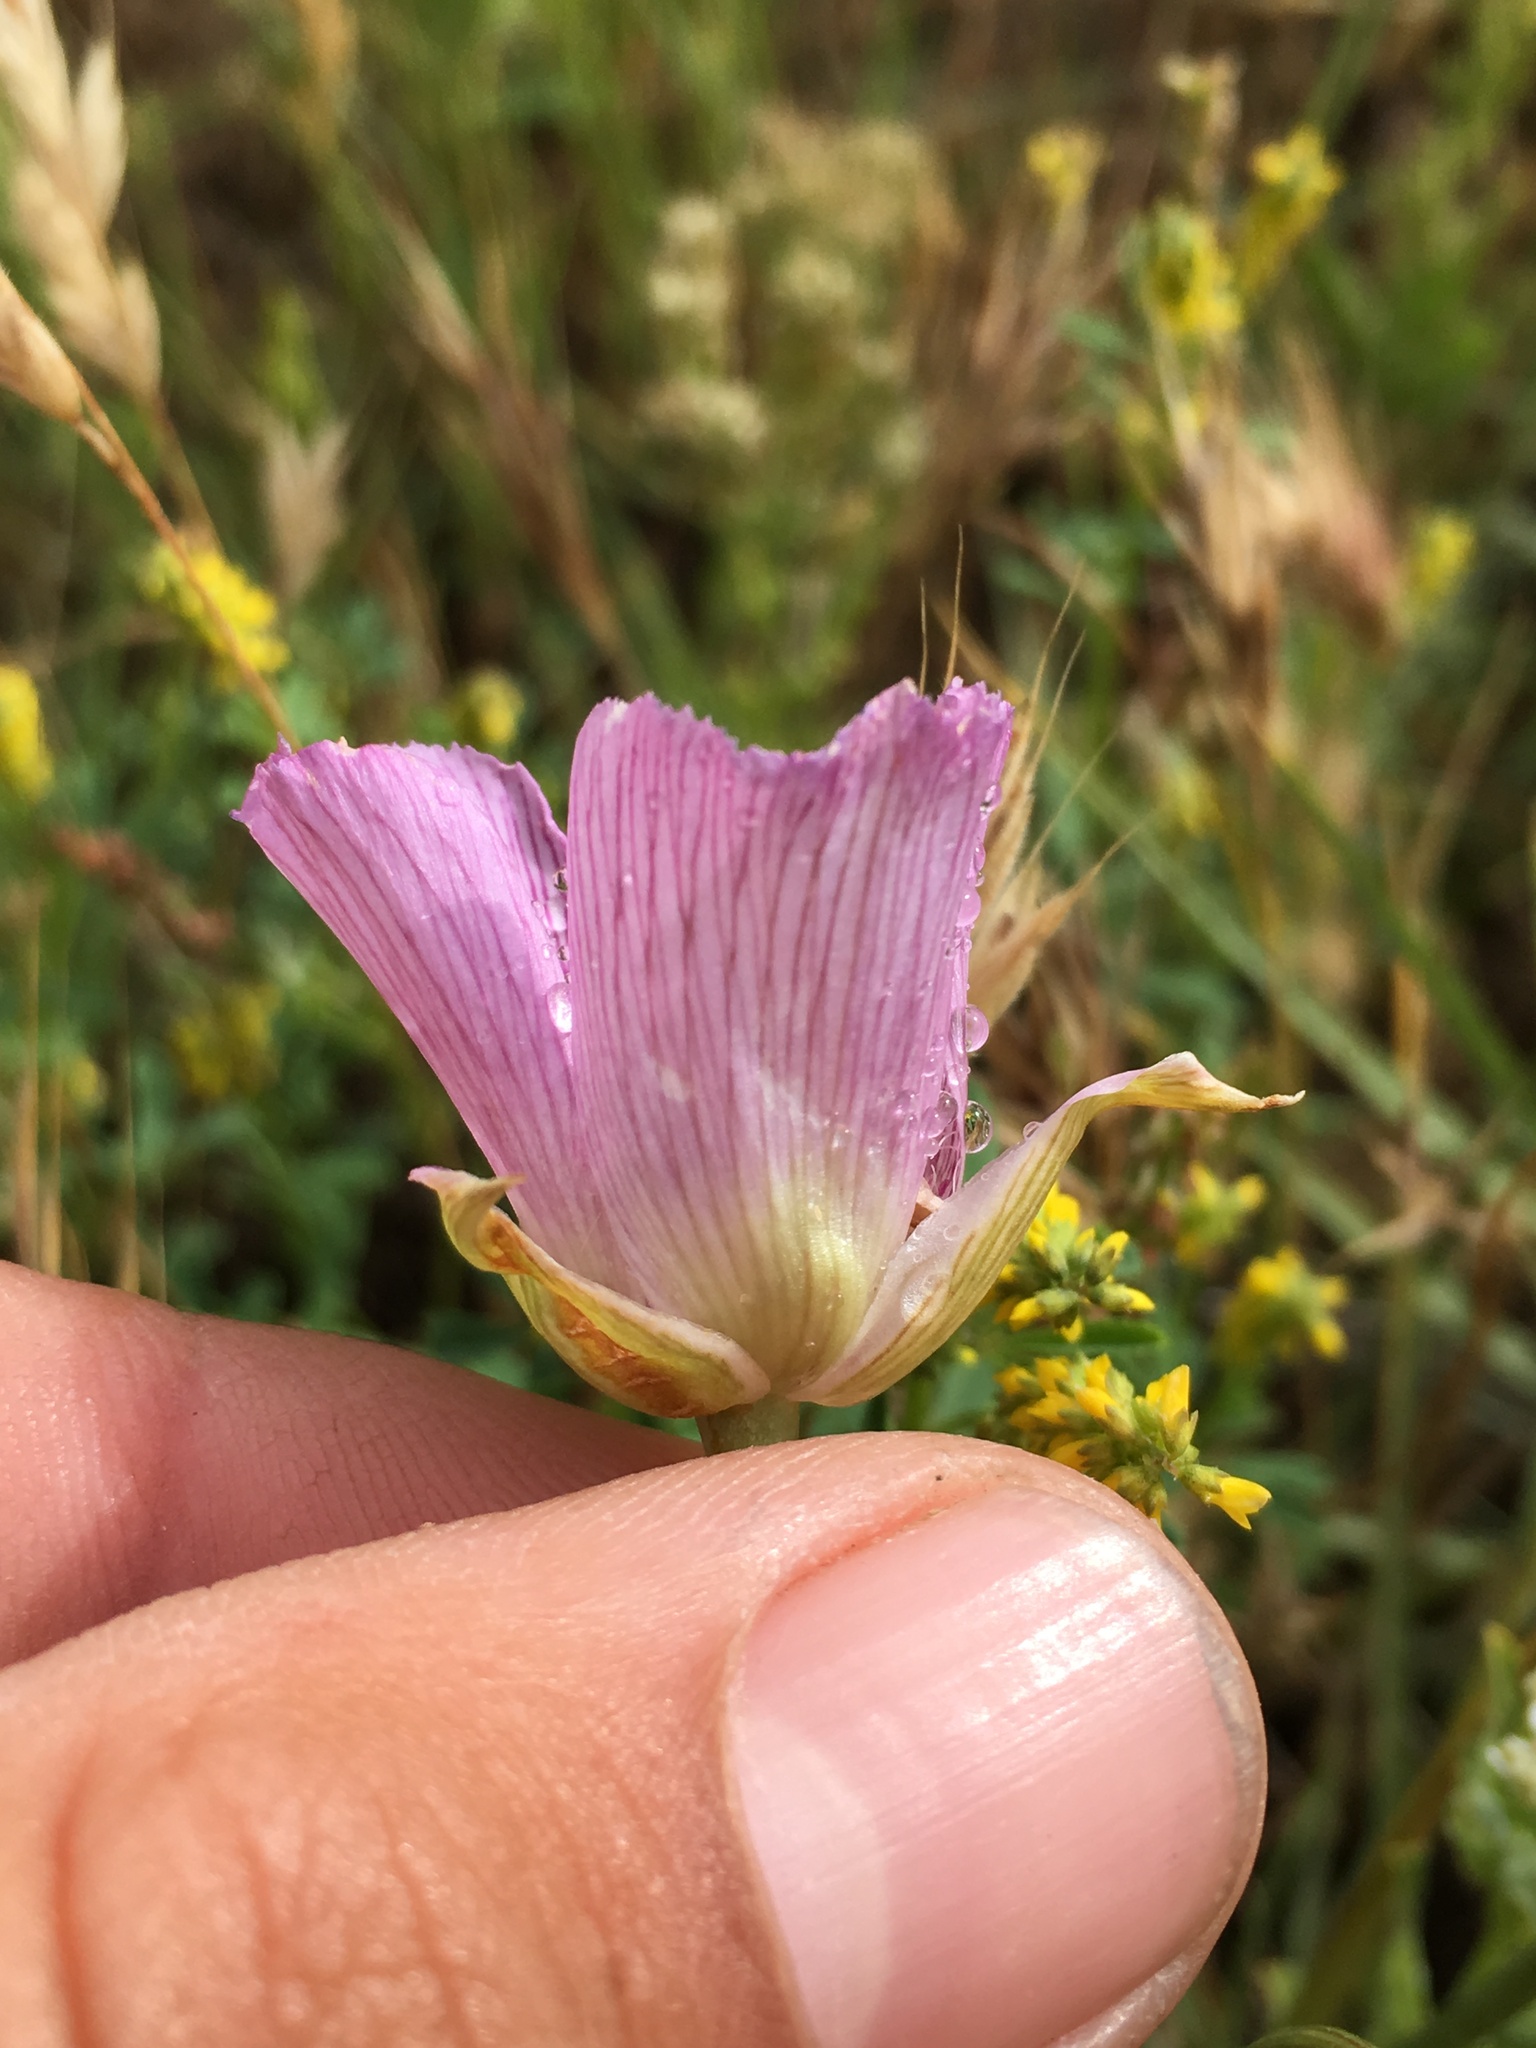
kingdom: Plantae
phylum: Tracheophyta
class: Liliopsida
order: Liliales
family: Liliaceae
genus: Calochortus
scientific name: Calochortus striatus
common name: Alkali mariposa-lily
